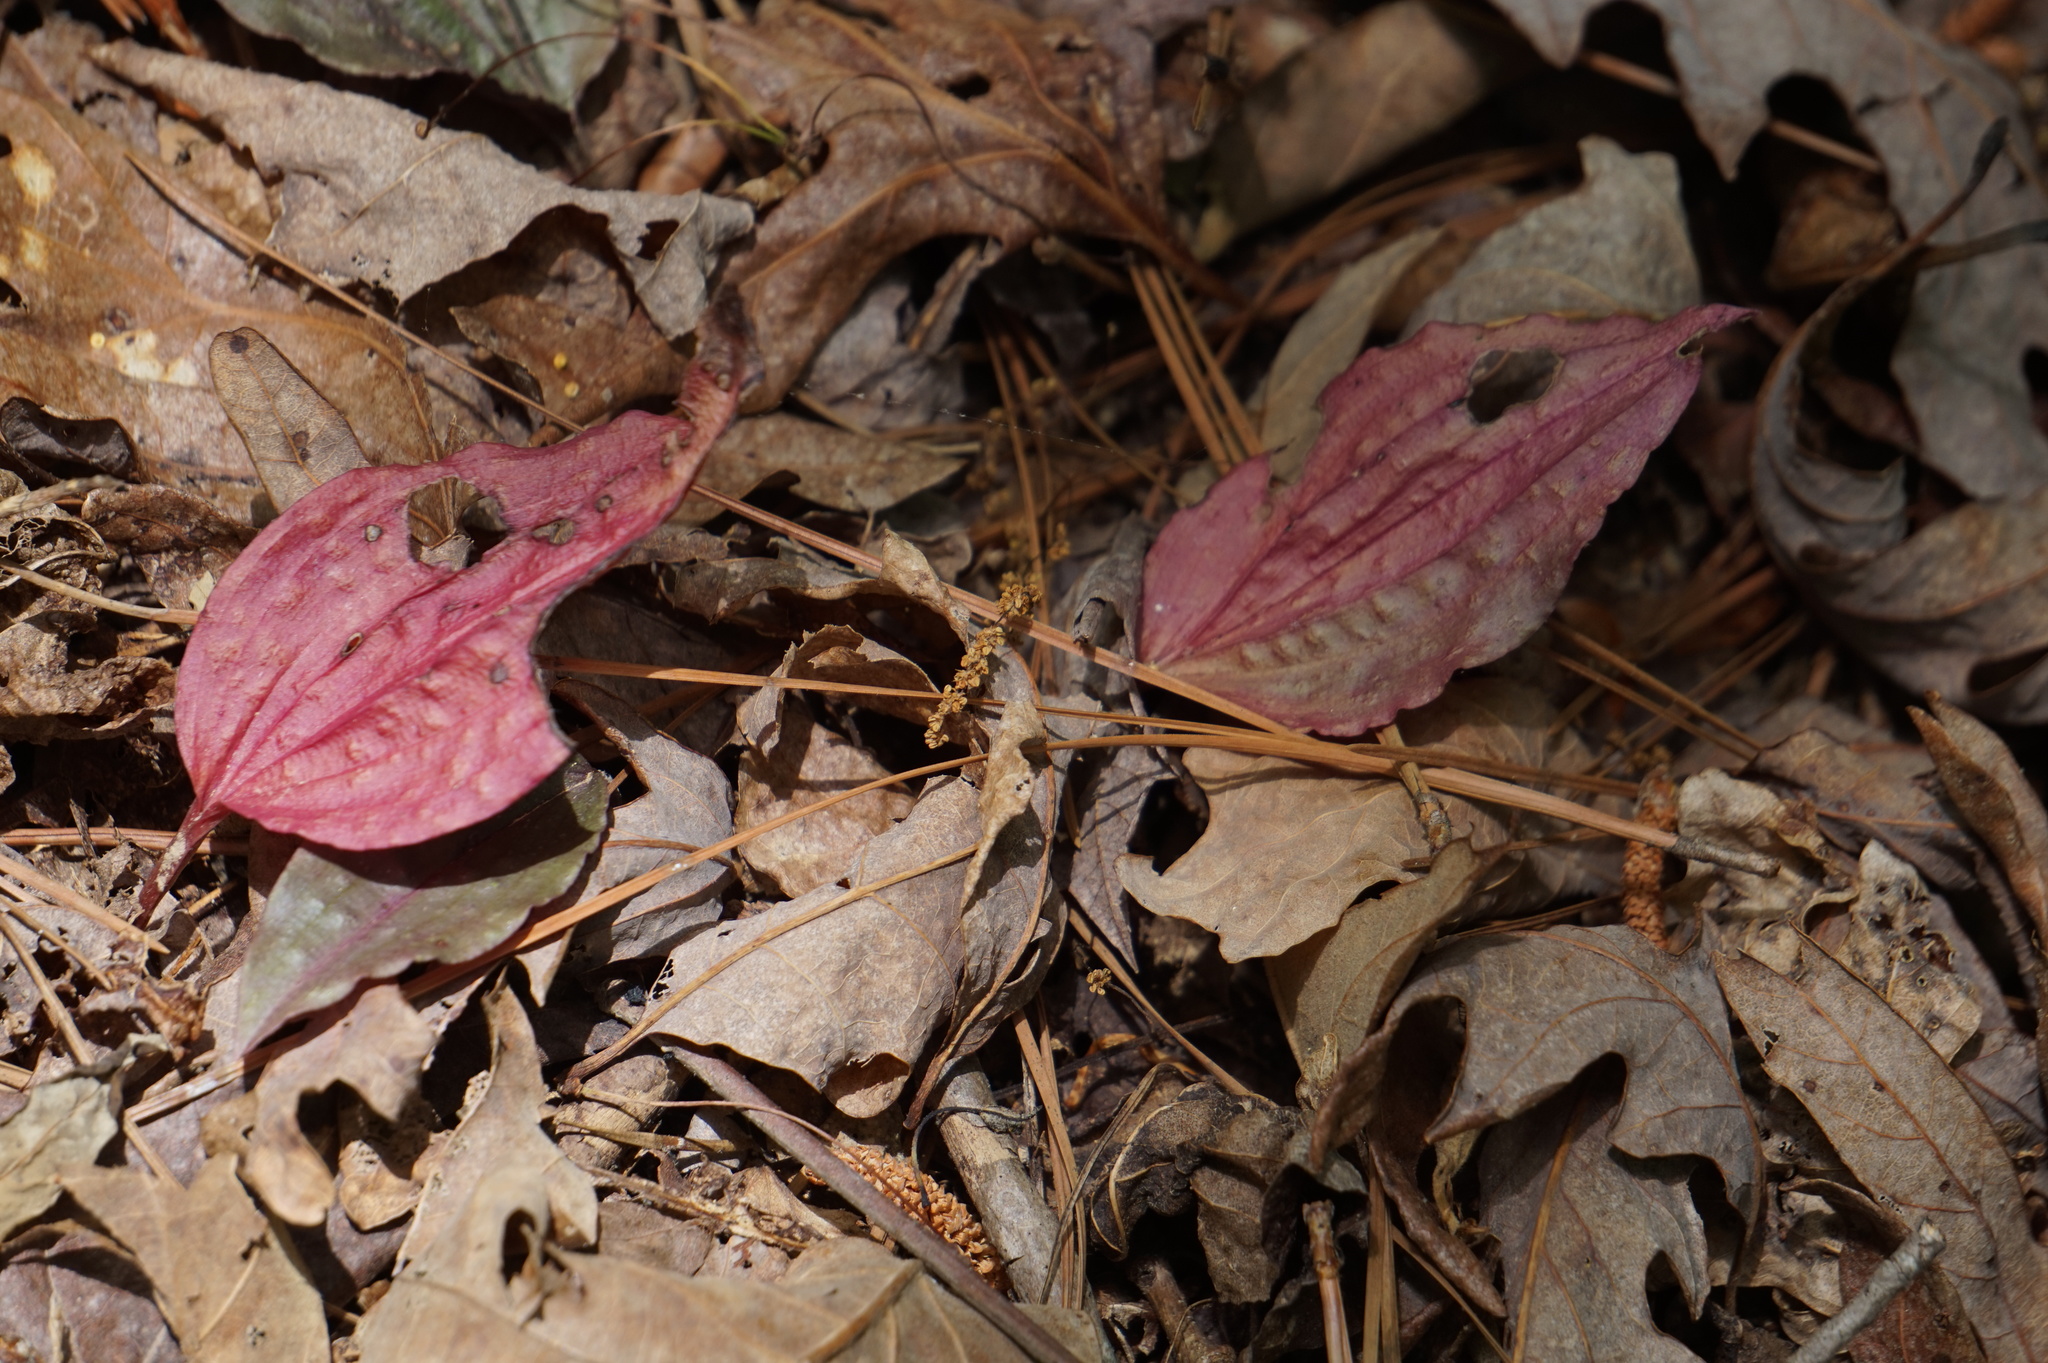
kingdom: Plantae
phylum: Tracheophyta
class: Liliopsida
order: Asparagales
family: Orchidaceae
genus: Tipularia
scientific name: Tipularia discolor
